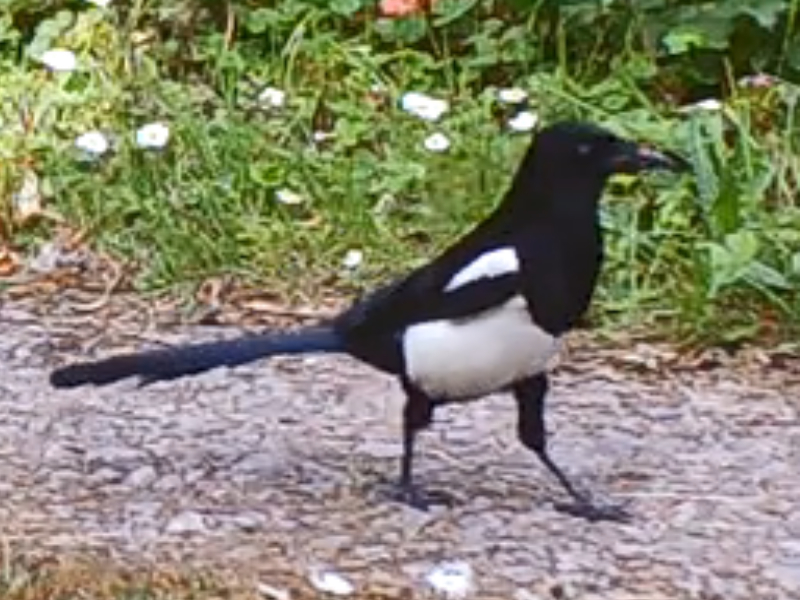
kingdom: Animalia
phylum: Chordata
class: Aves
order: Passeriformes
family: Corvidae
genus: Pica
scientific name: Pica pica
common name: Eurasian magpie
